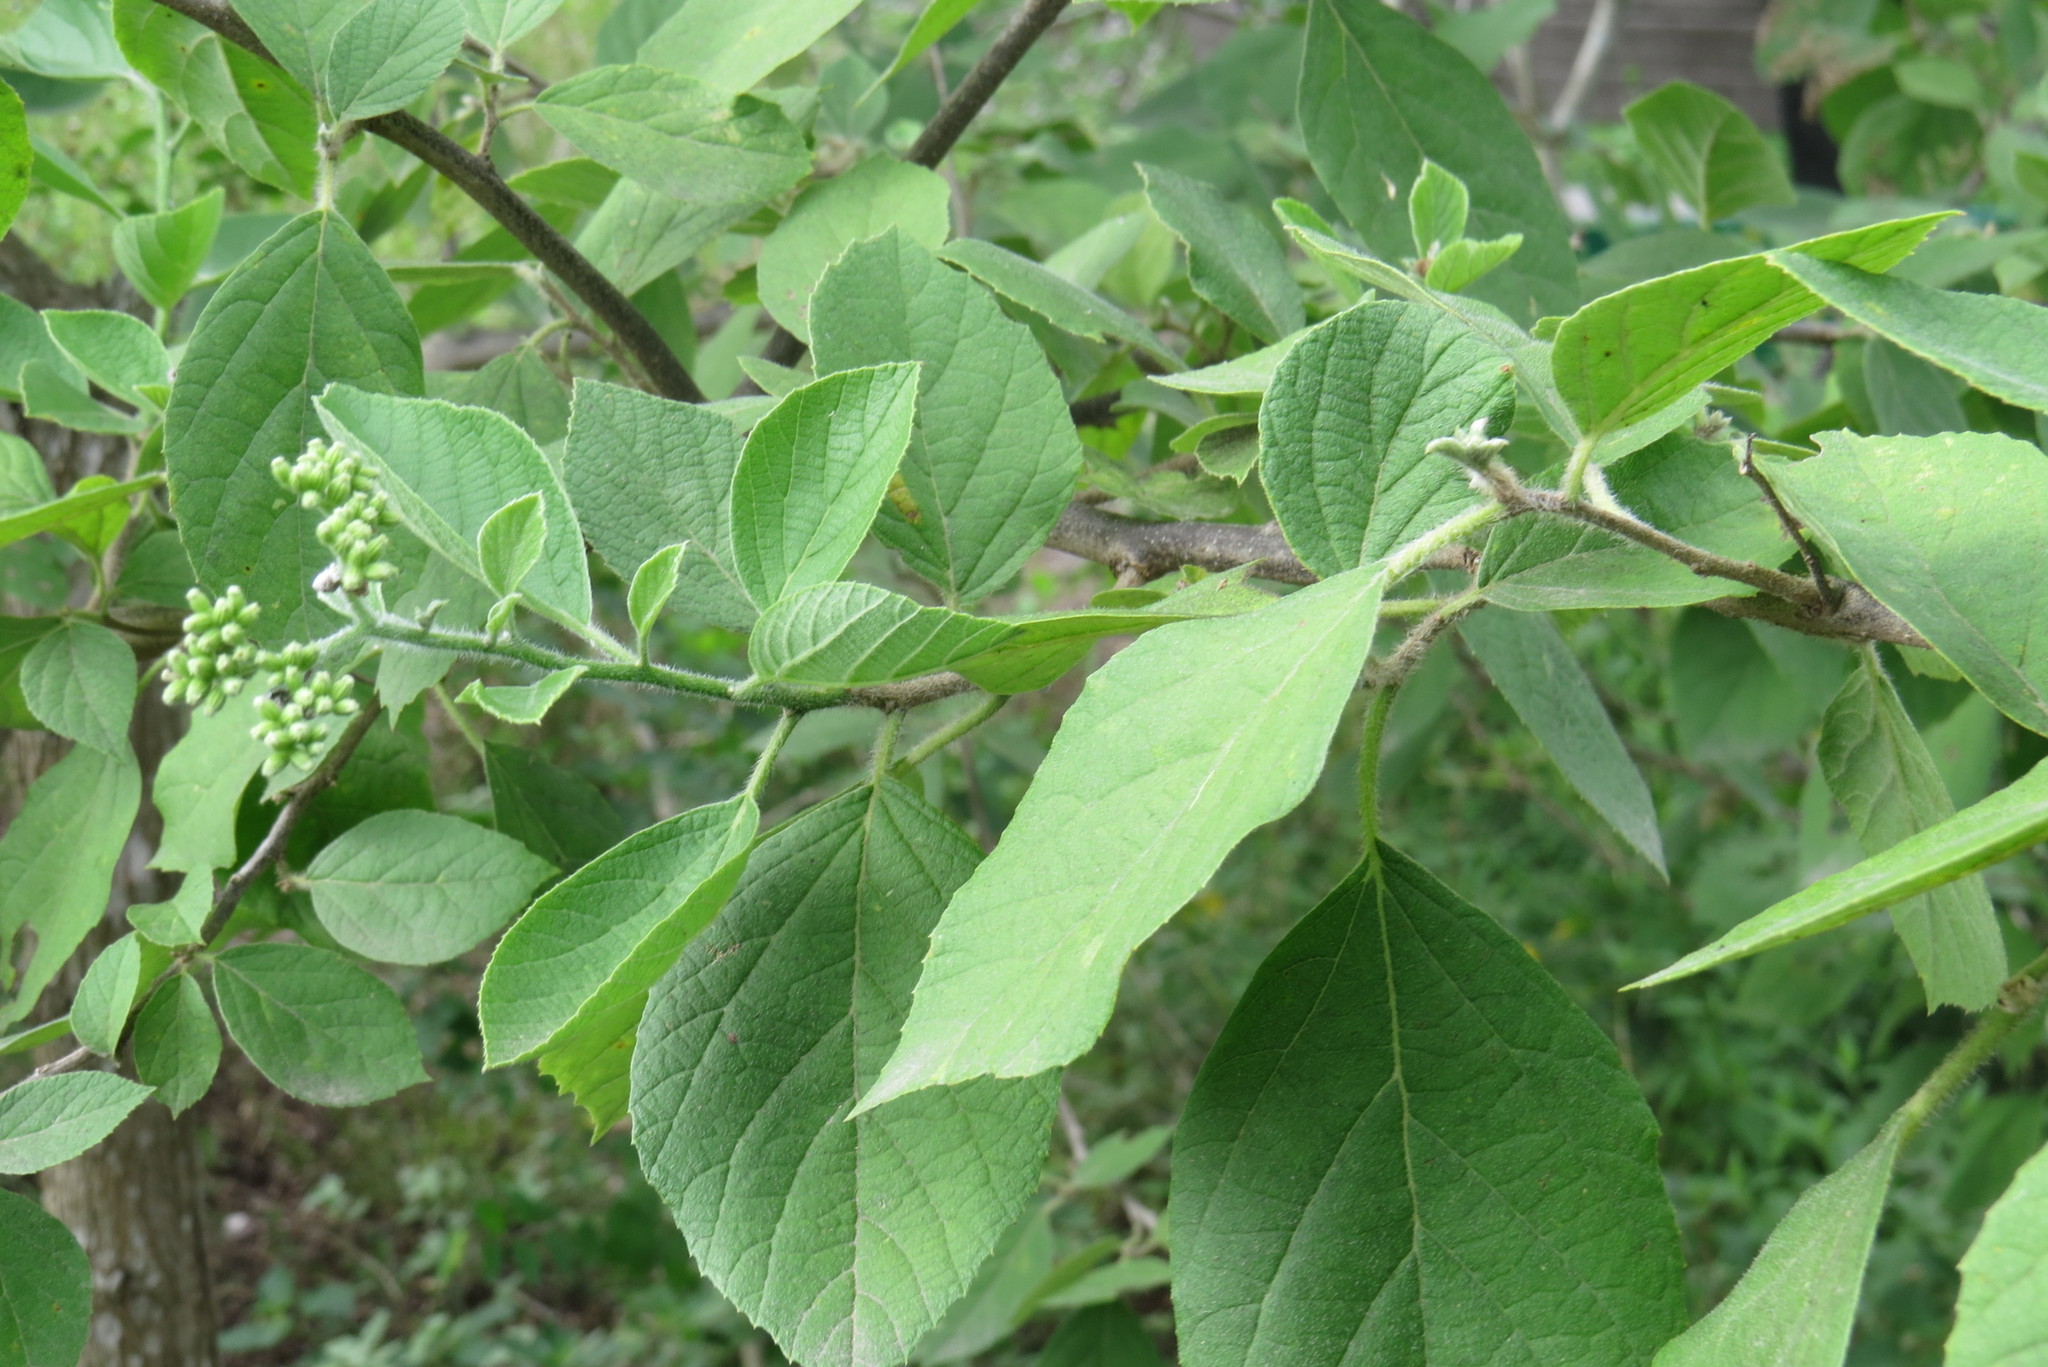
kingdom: Plantae
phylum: Tracheophyta
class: Magnoliopsida
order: Boraginales
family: Cordiaceae
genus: Cordia
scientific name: Cordia dentata
